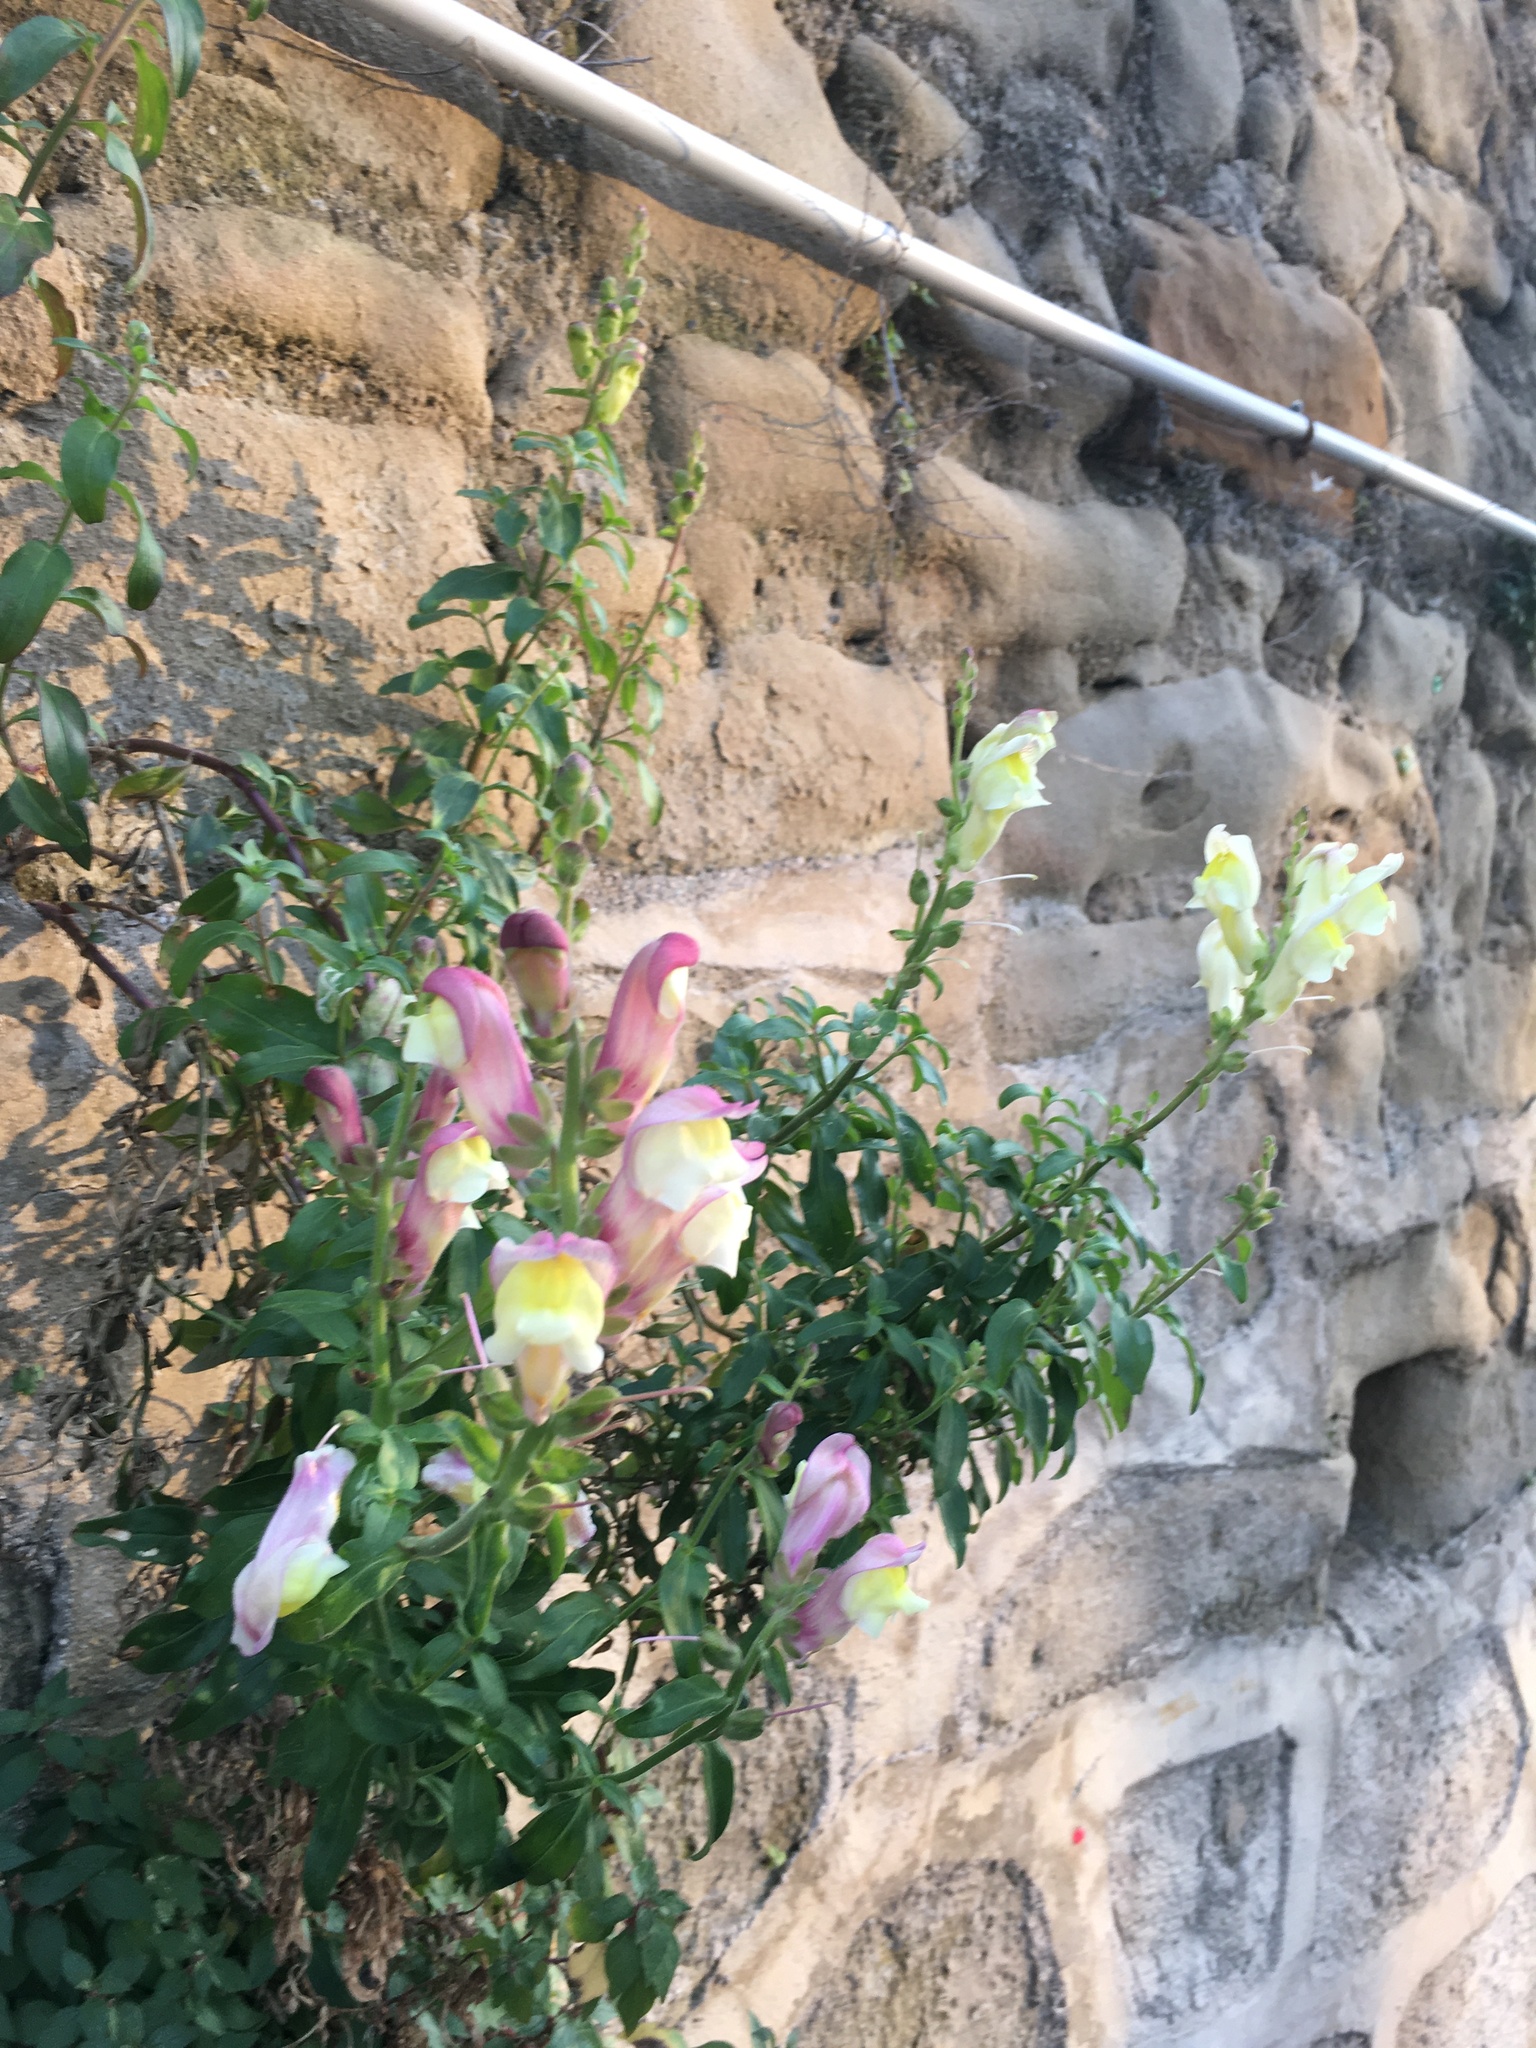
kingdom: Plantae
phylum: Tracheophyta
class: Magnoliopsida
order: Lamiales
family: Plantaginaceae
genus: Antirrhinum
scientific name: Antirrhinum latifolium
